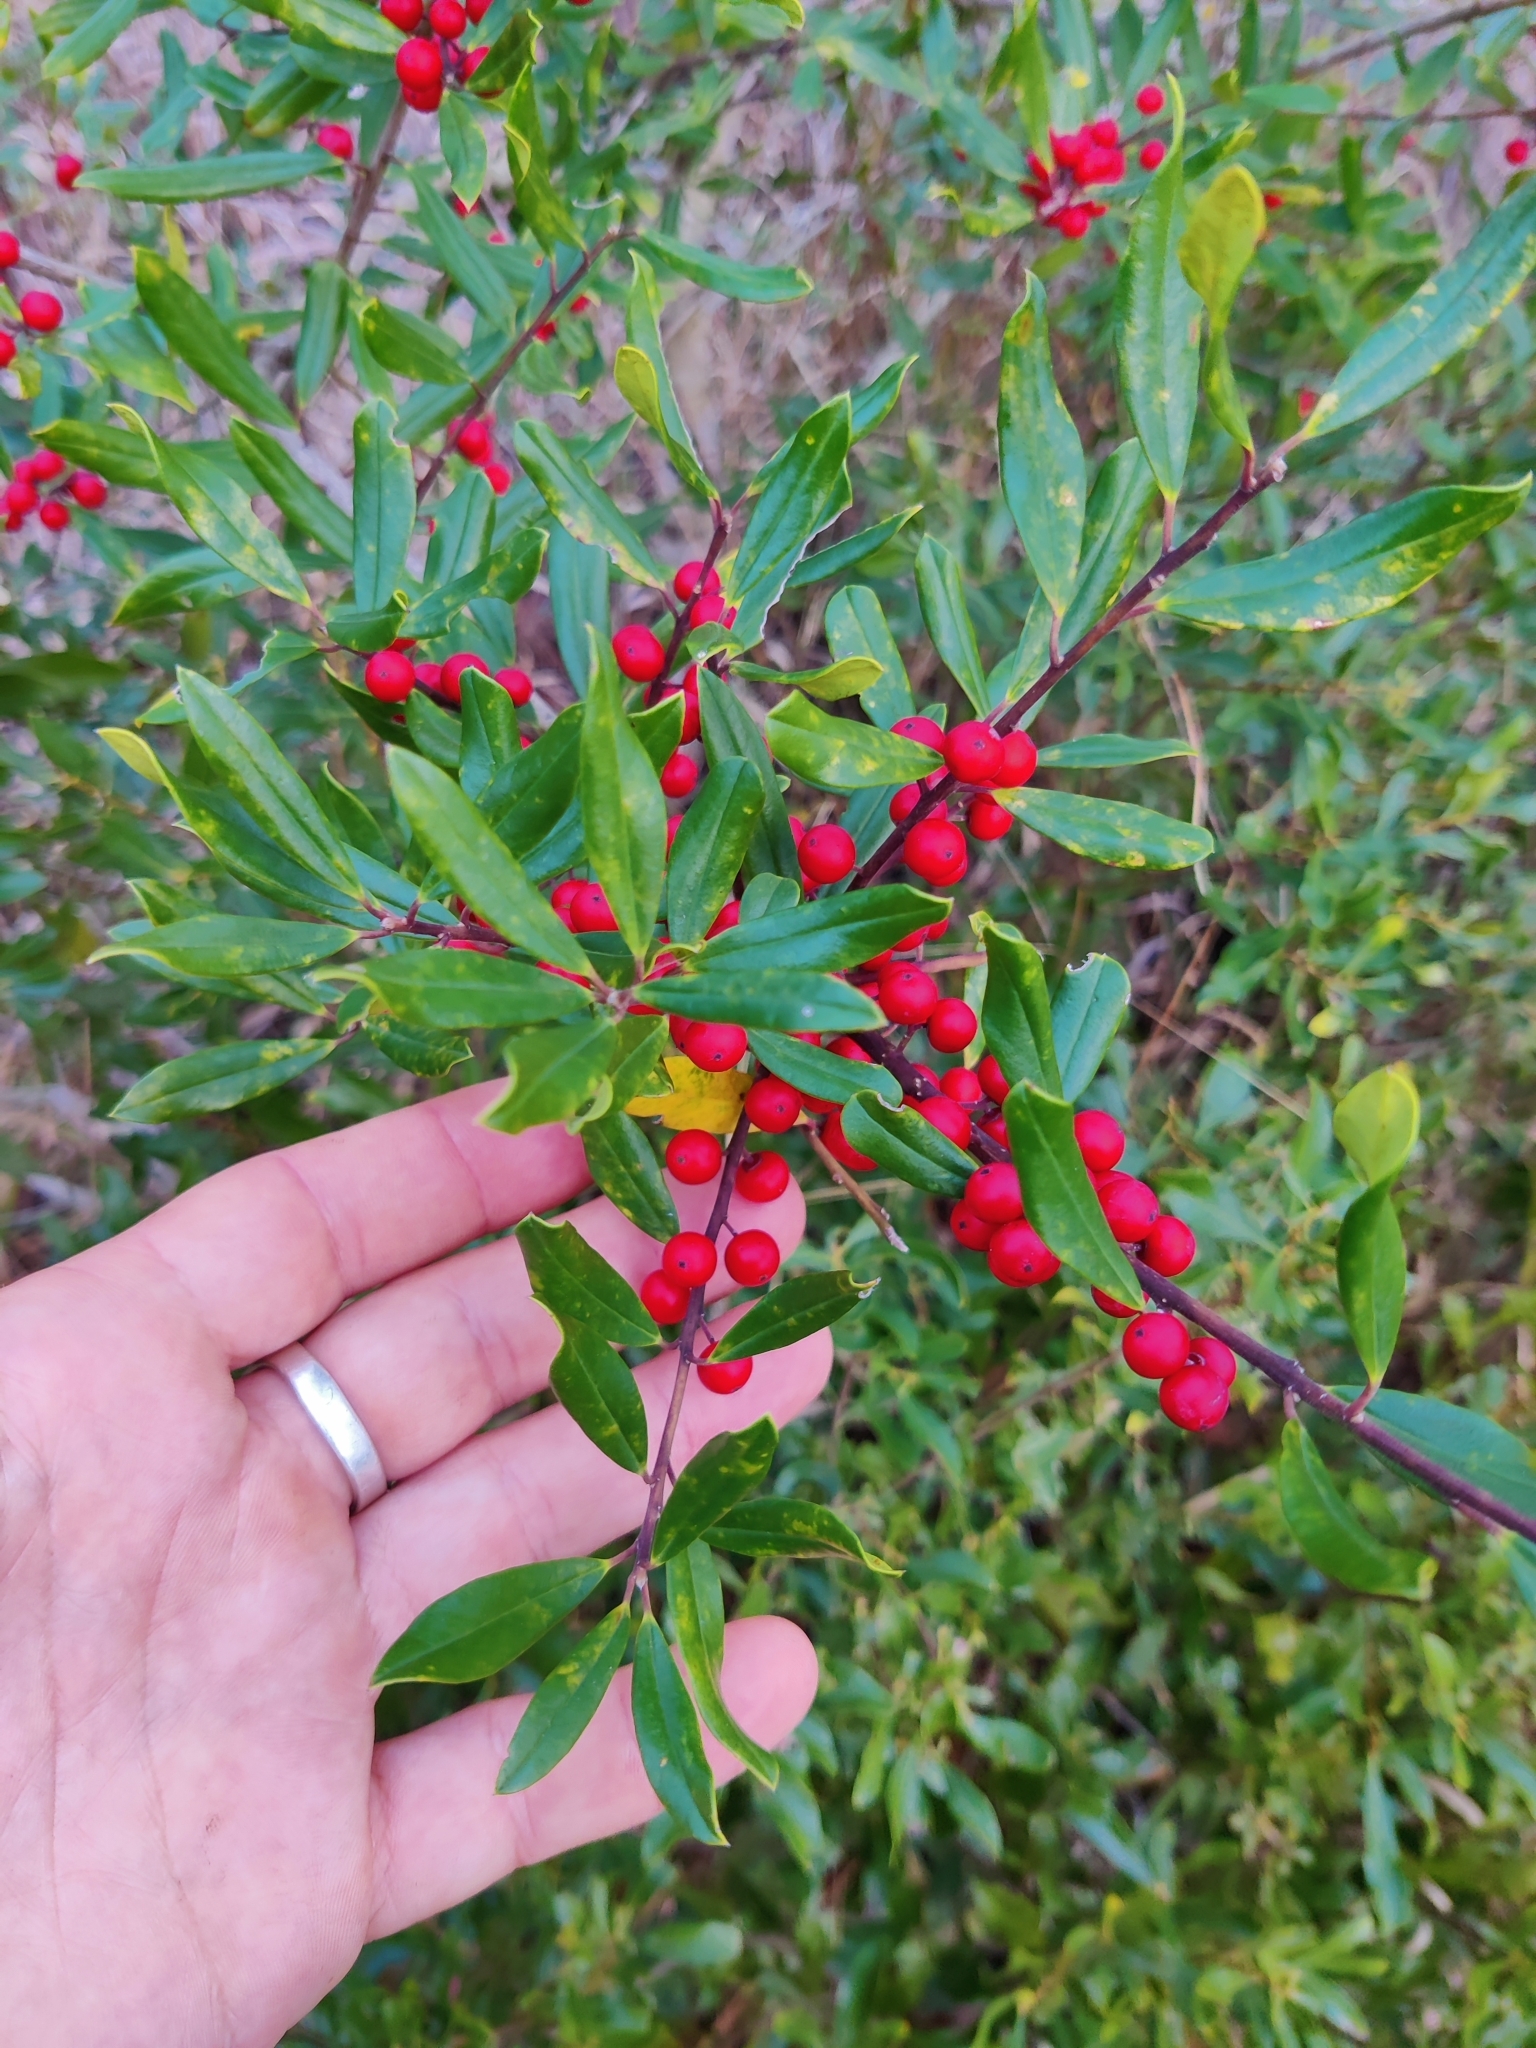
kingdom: Plantae
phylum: Tracheophyta
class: Magnoliopsida
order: Aquifoliales
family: Aquifoliaceae
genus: Ilex
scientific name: Ilex cassine
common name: Dahoon
